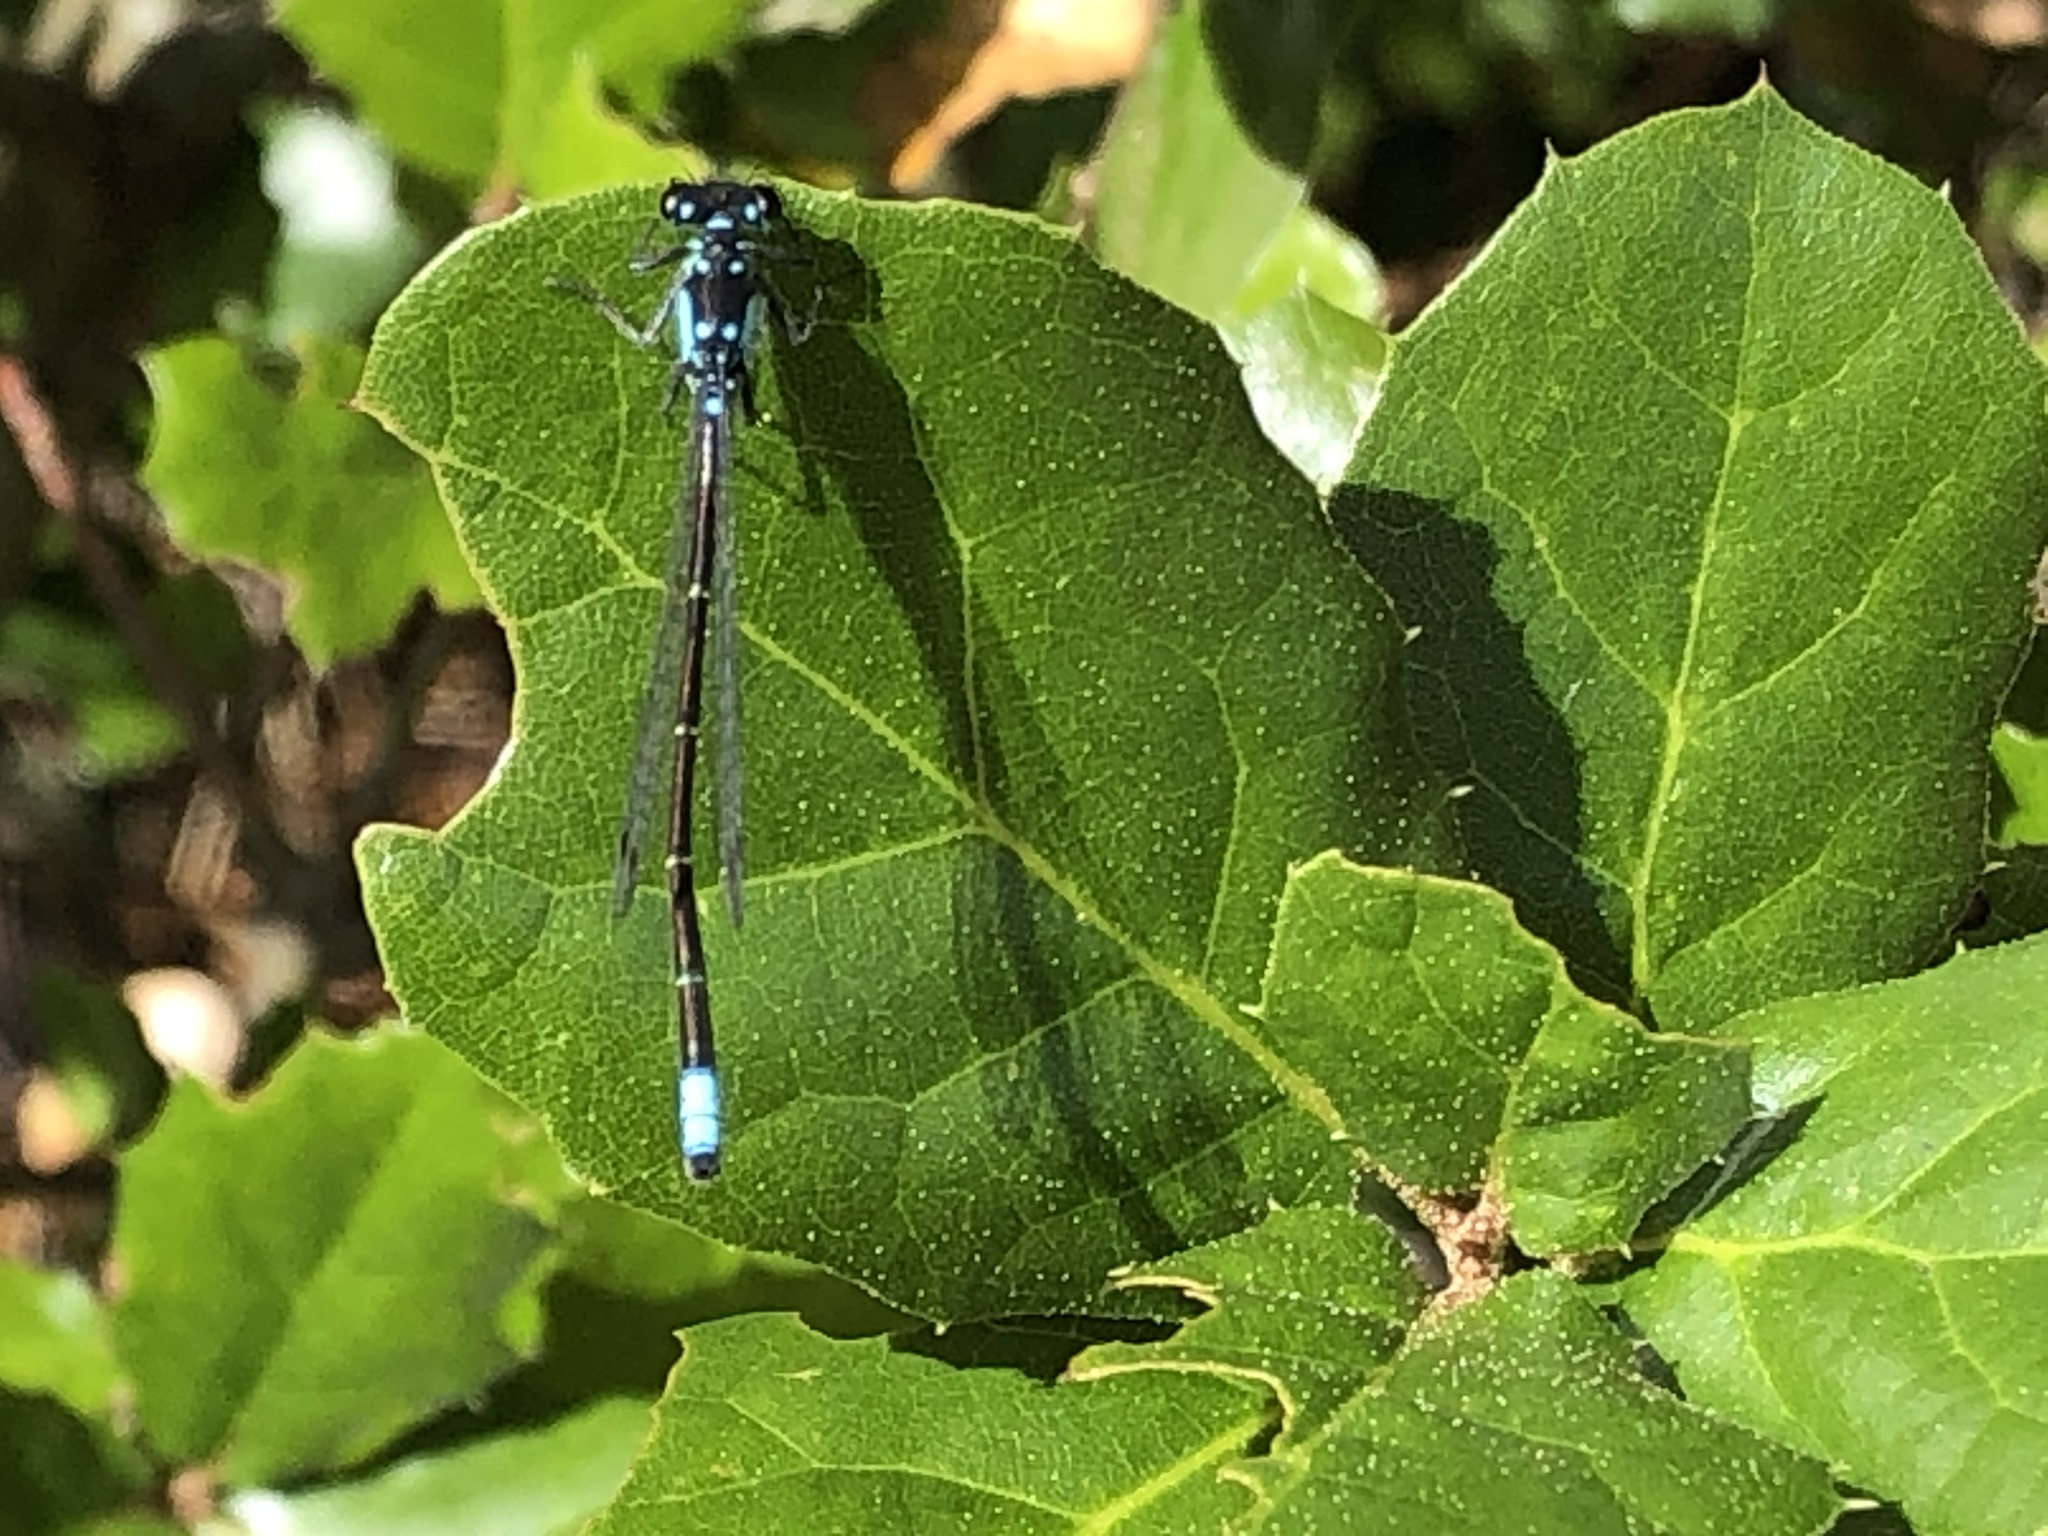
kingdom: Animalia
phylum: Arthropoda
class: Insecta
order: Odonata
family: Coenagrionidae
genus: Ischnura
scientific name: Ischnura cervula
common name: Pacific forktail
